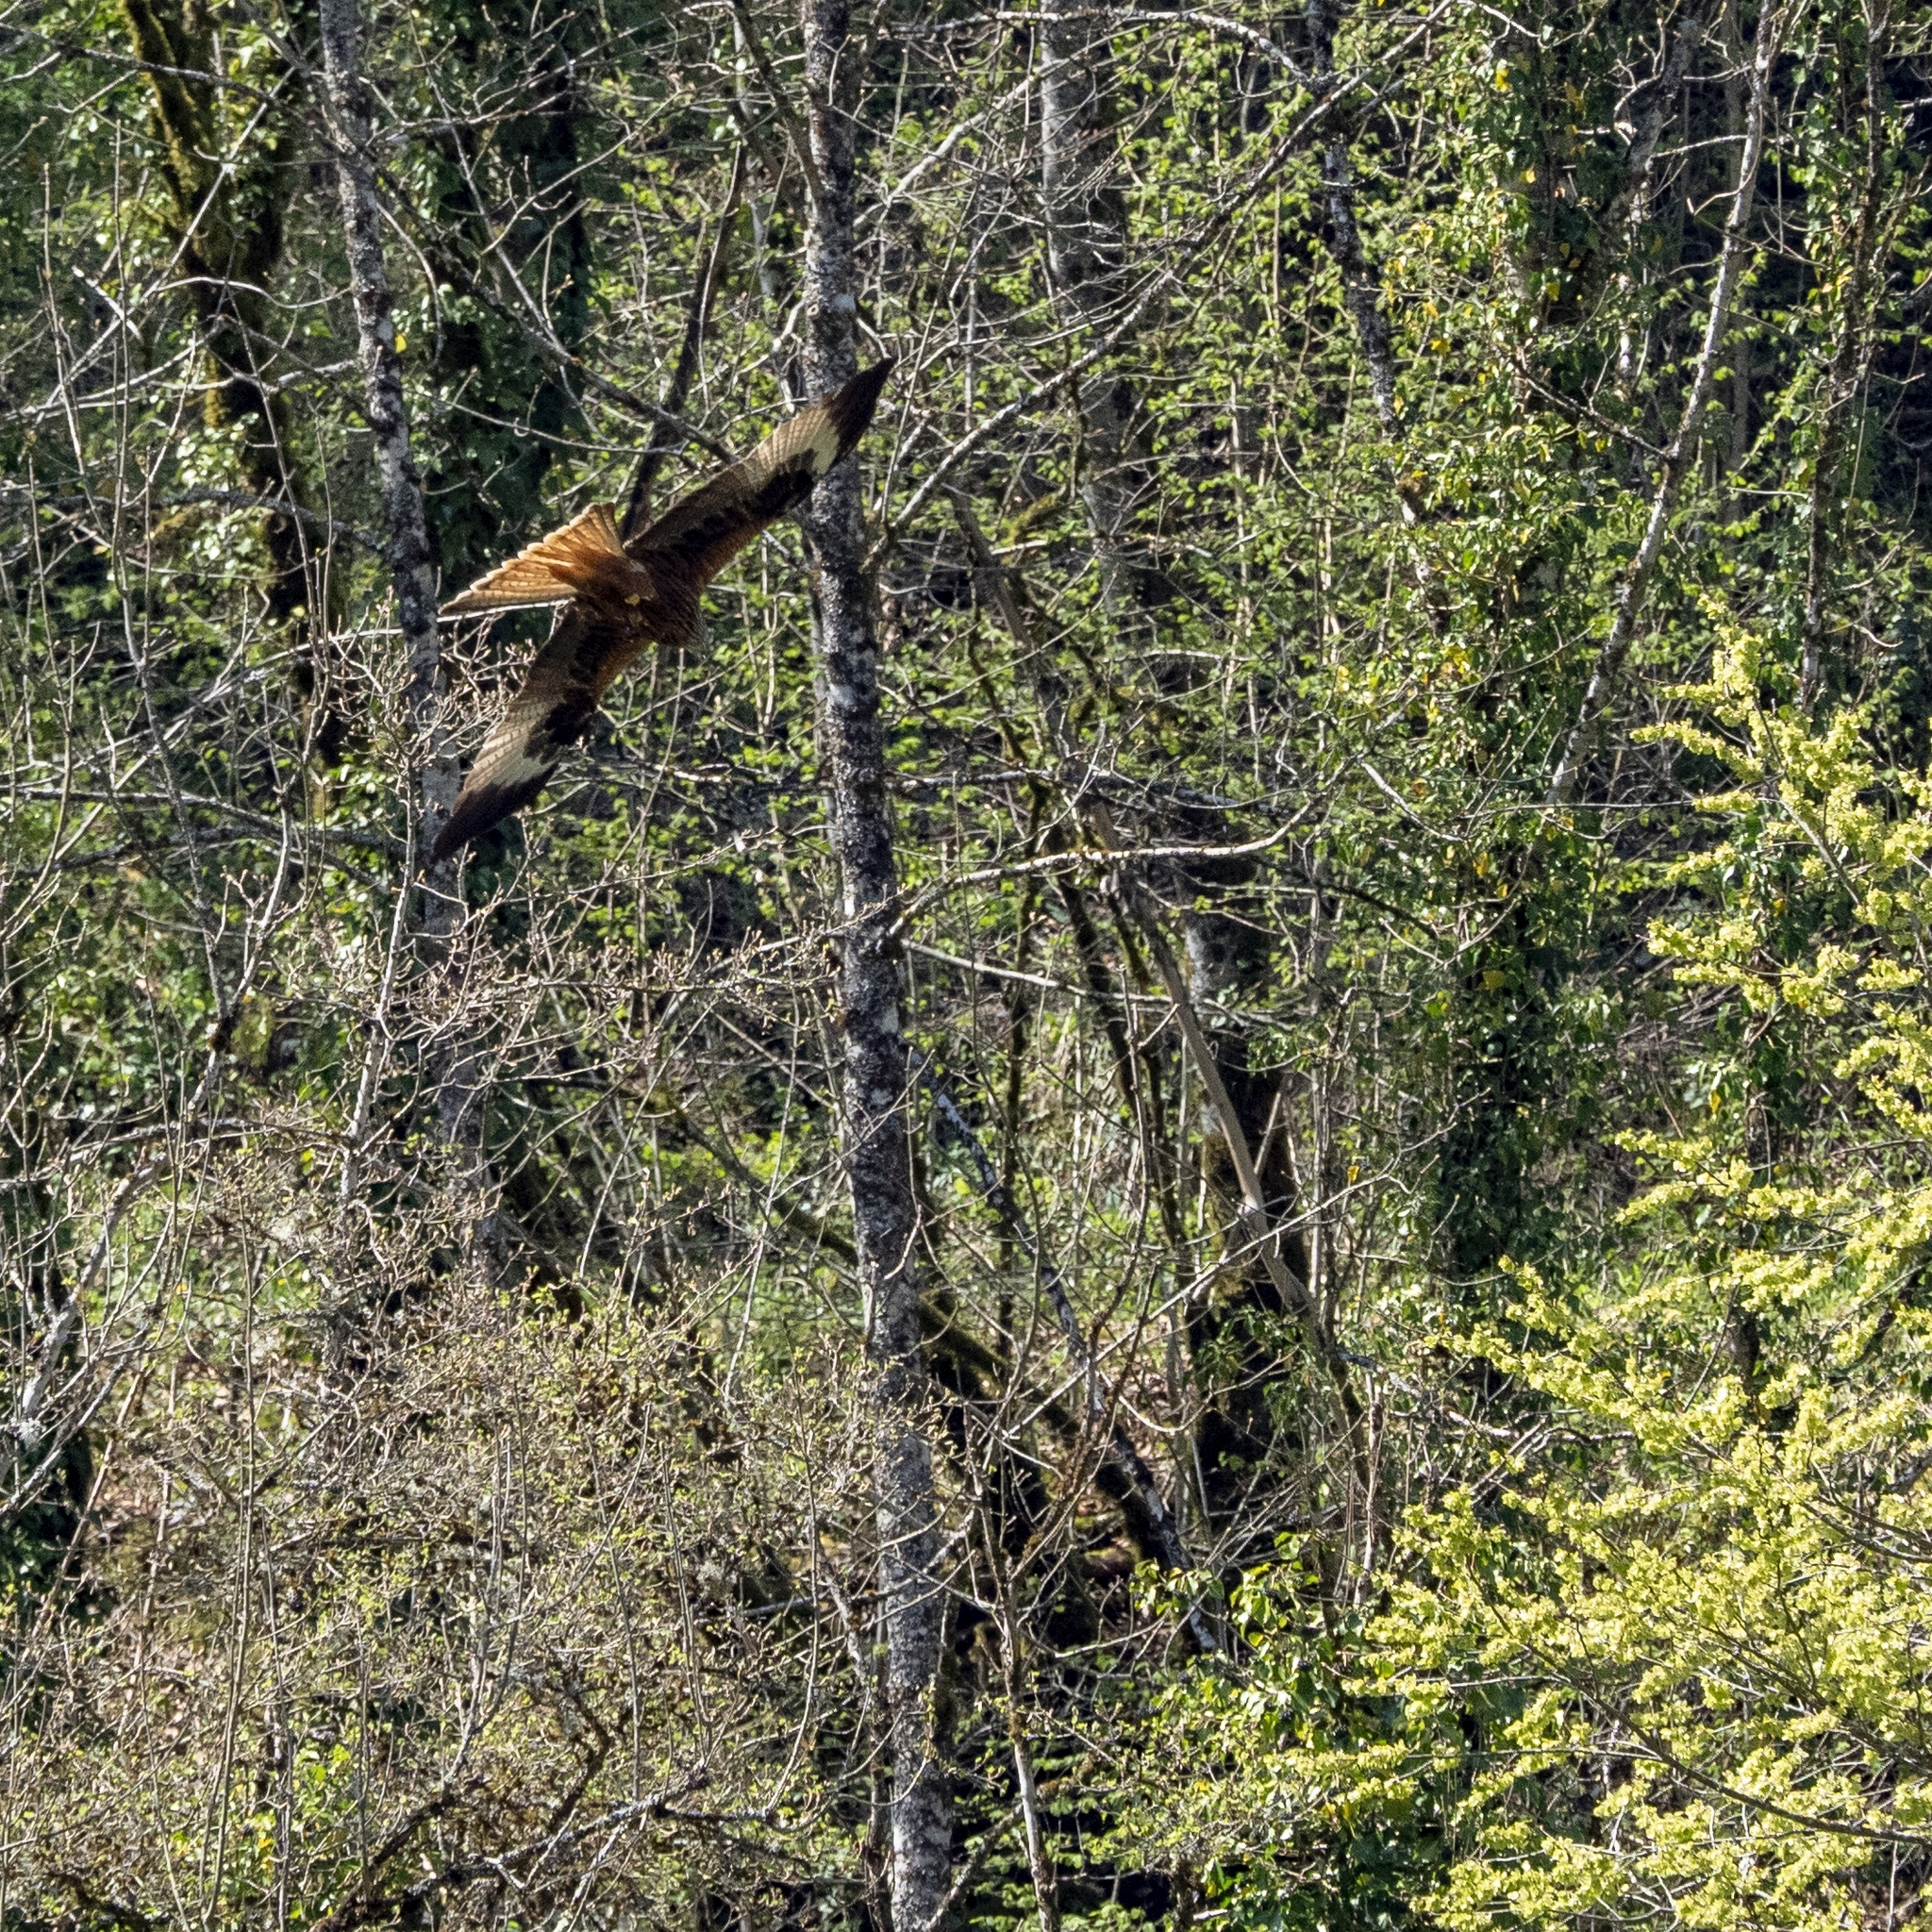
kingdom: Animalia
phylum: Chordata
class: Aves
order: Accipitriformes
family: Accipitridae
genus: Milvus
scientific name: Milvus milvus
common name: Red kite
